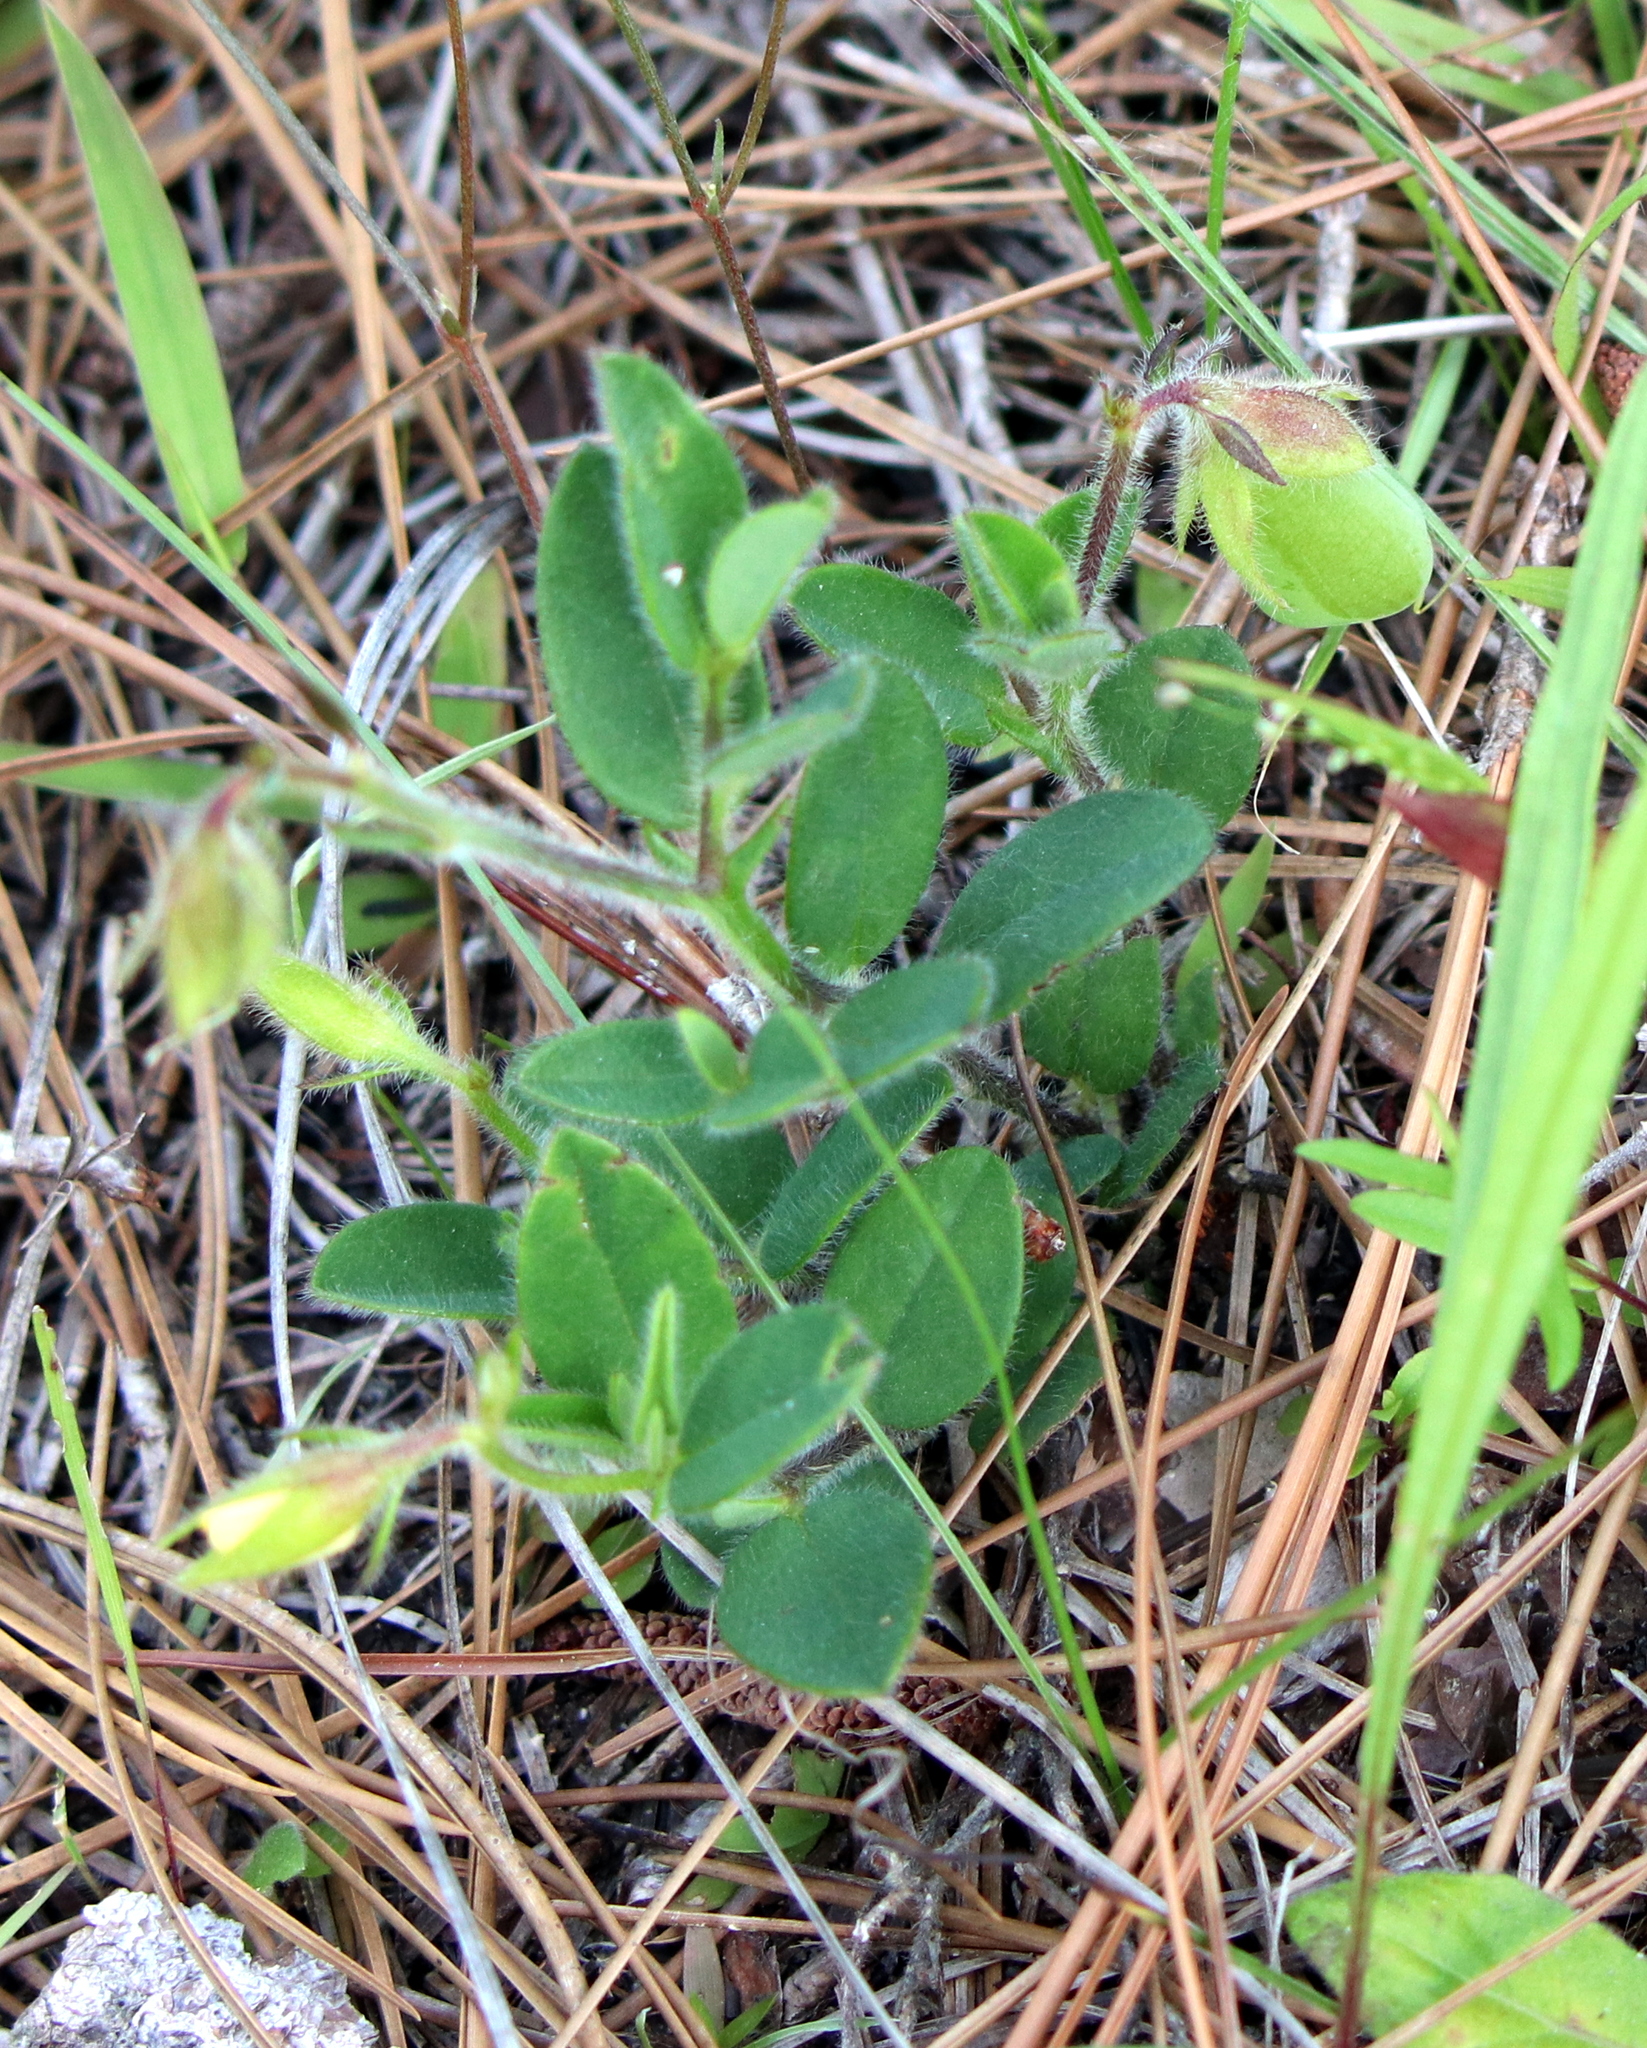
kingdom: Plantae
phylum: Tracheophyta
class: Magnoliopsida
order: Fabales
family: Fabaceae
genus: Crotalaria
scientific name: Crotalaria rotundifolia
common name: Prostrate rattlebox
